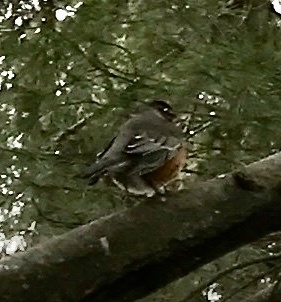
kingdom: Animalia
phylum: Chordata
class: Aves
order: Passeriformes
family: Turdidae
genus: Turdus
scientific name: Turdus migratorius
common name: American robin
